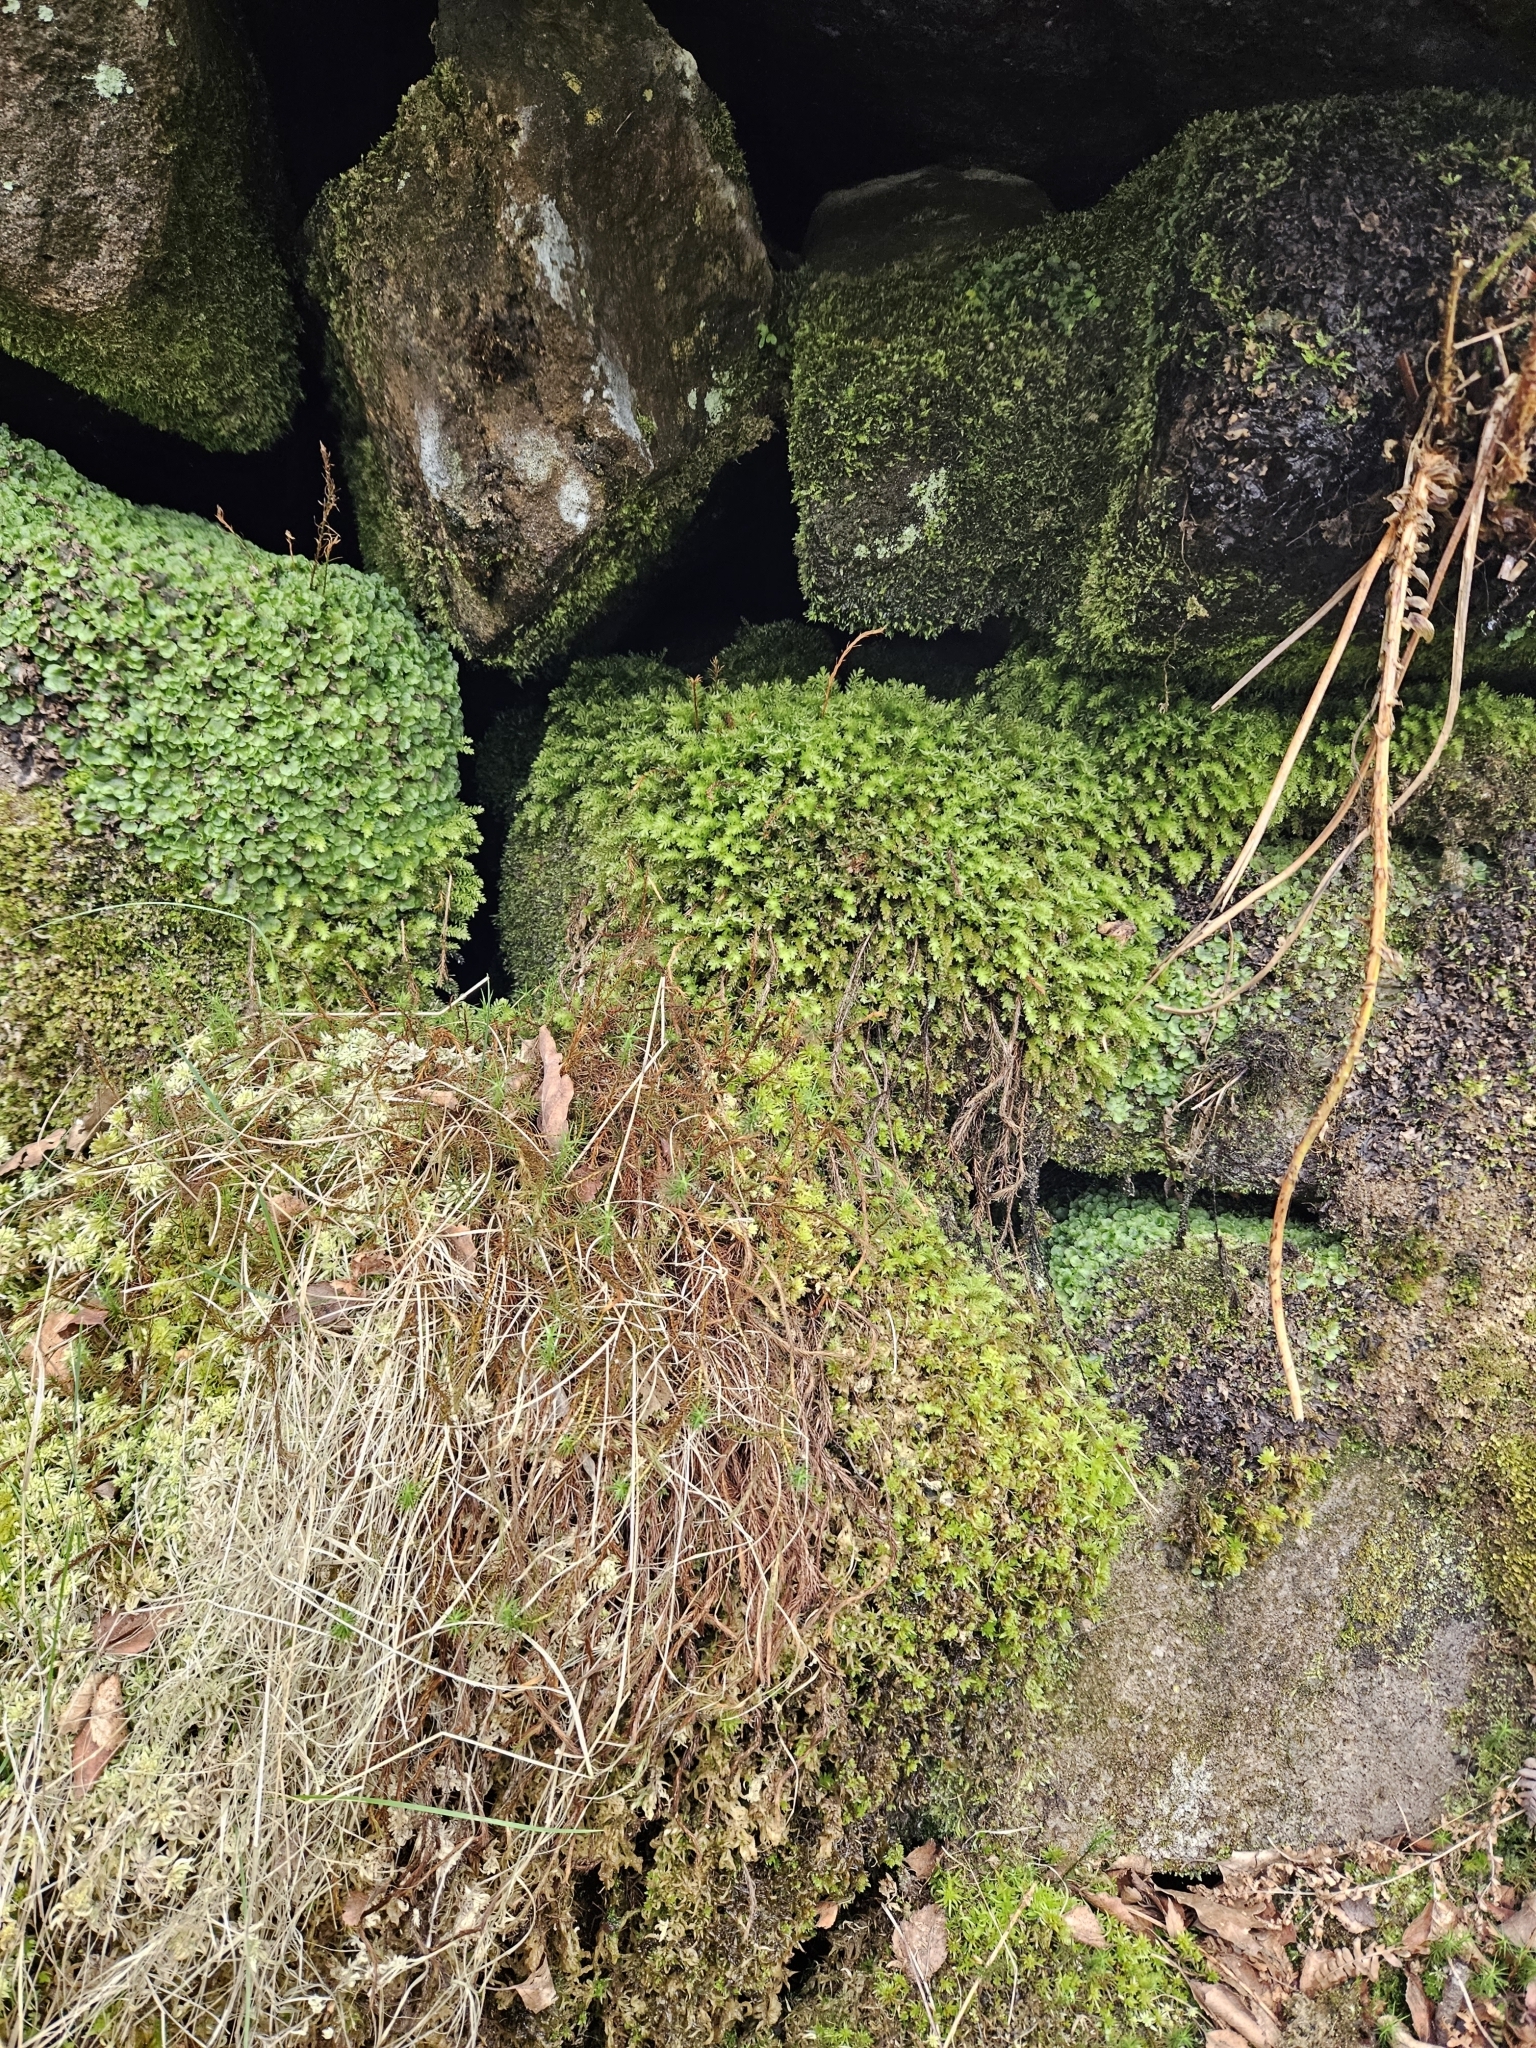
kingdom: Plantae
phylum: Bryophyta
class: Bryopsida
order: Bryales
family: Mniaceae
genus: Mnium
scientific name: Mnium hornum
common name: Swan's-neck leafy moss
